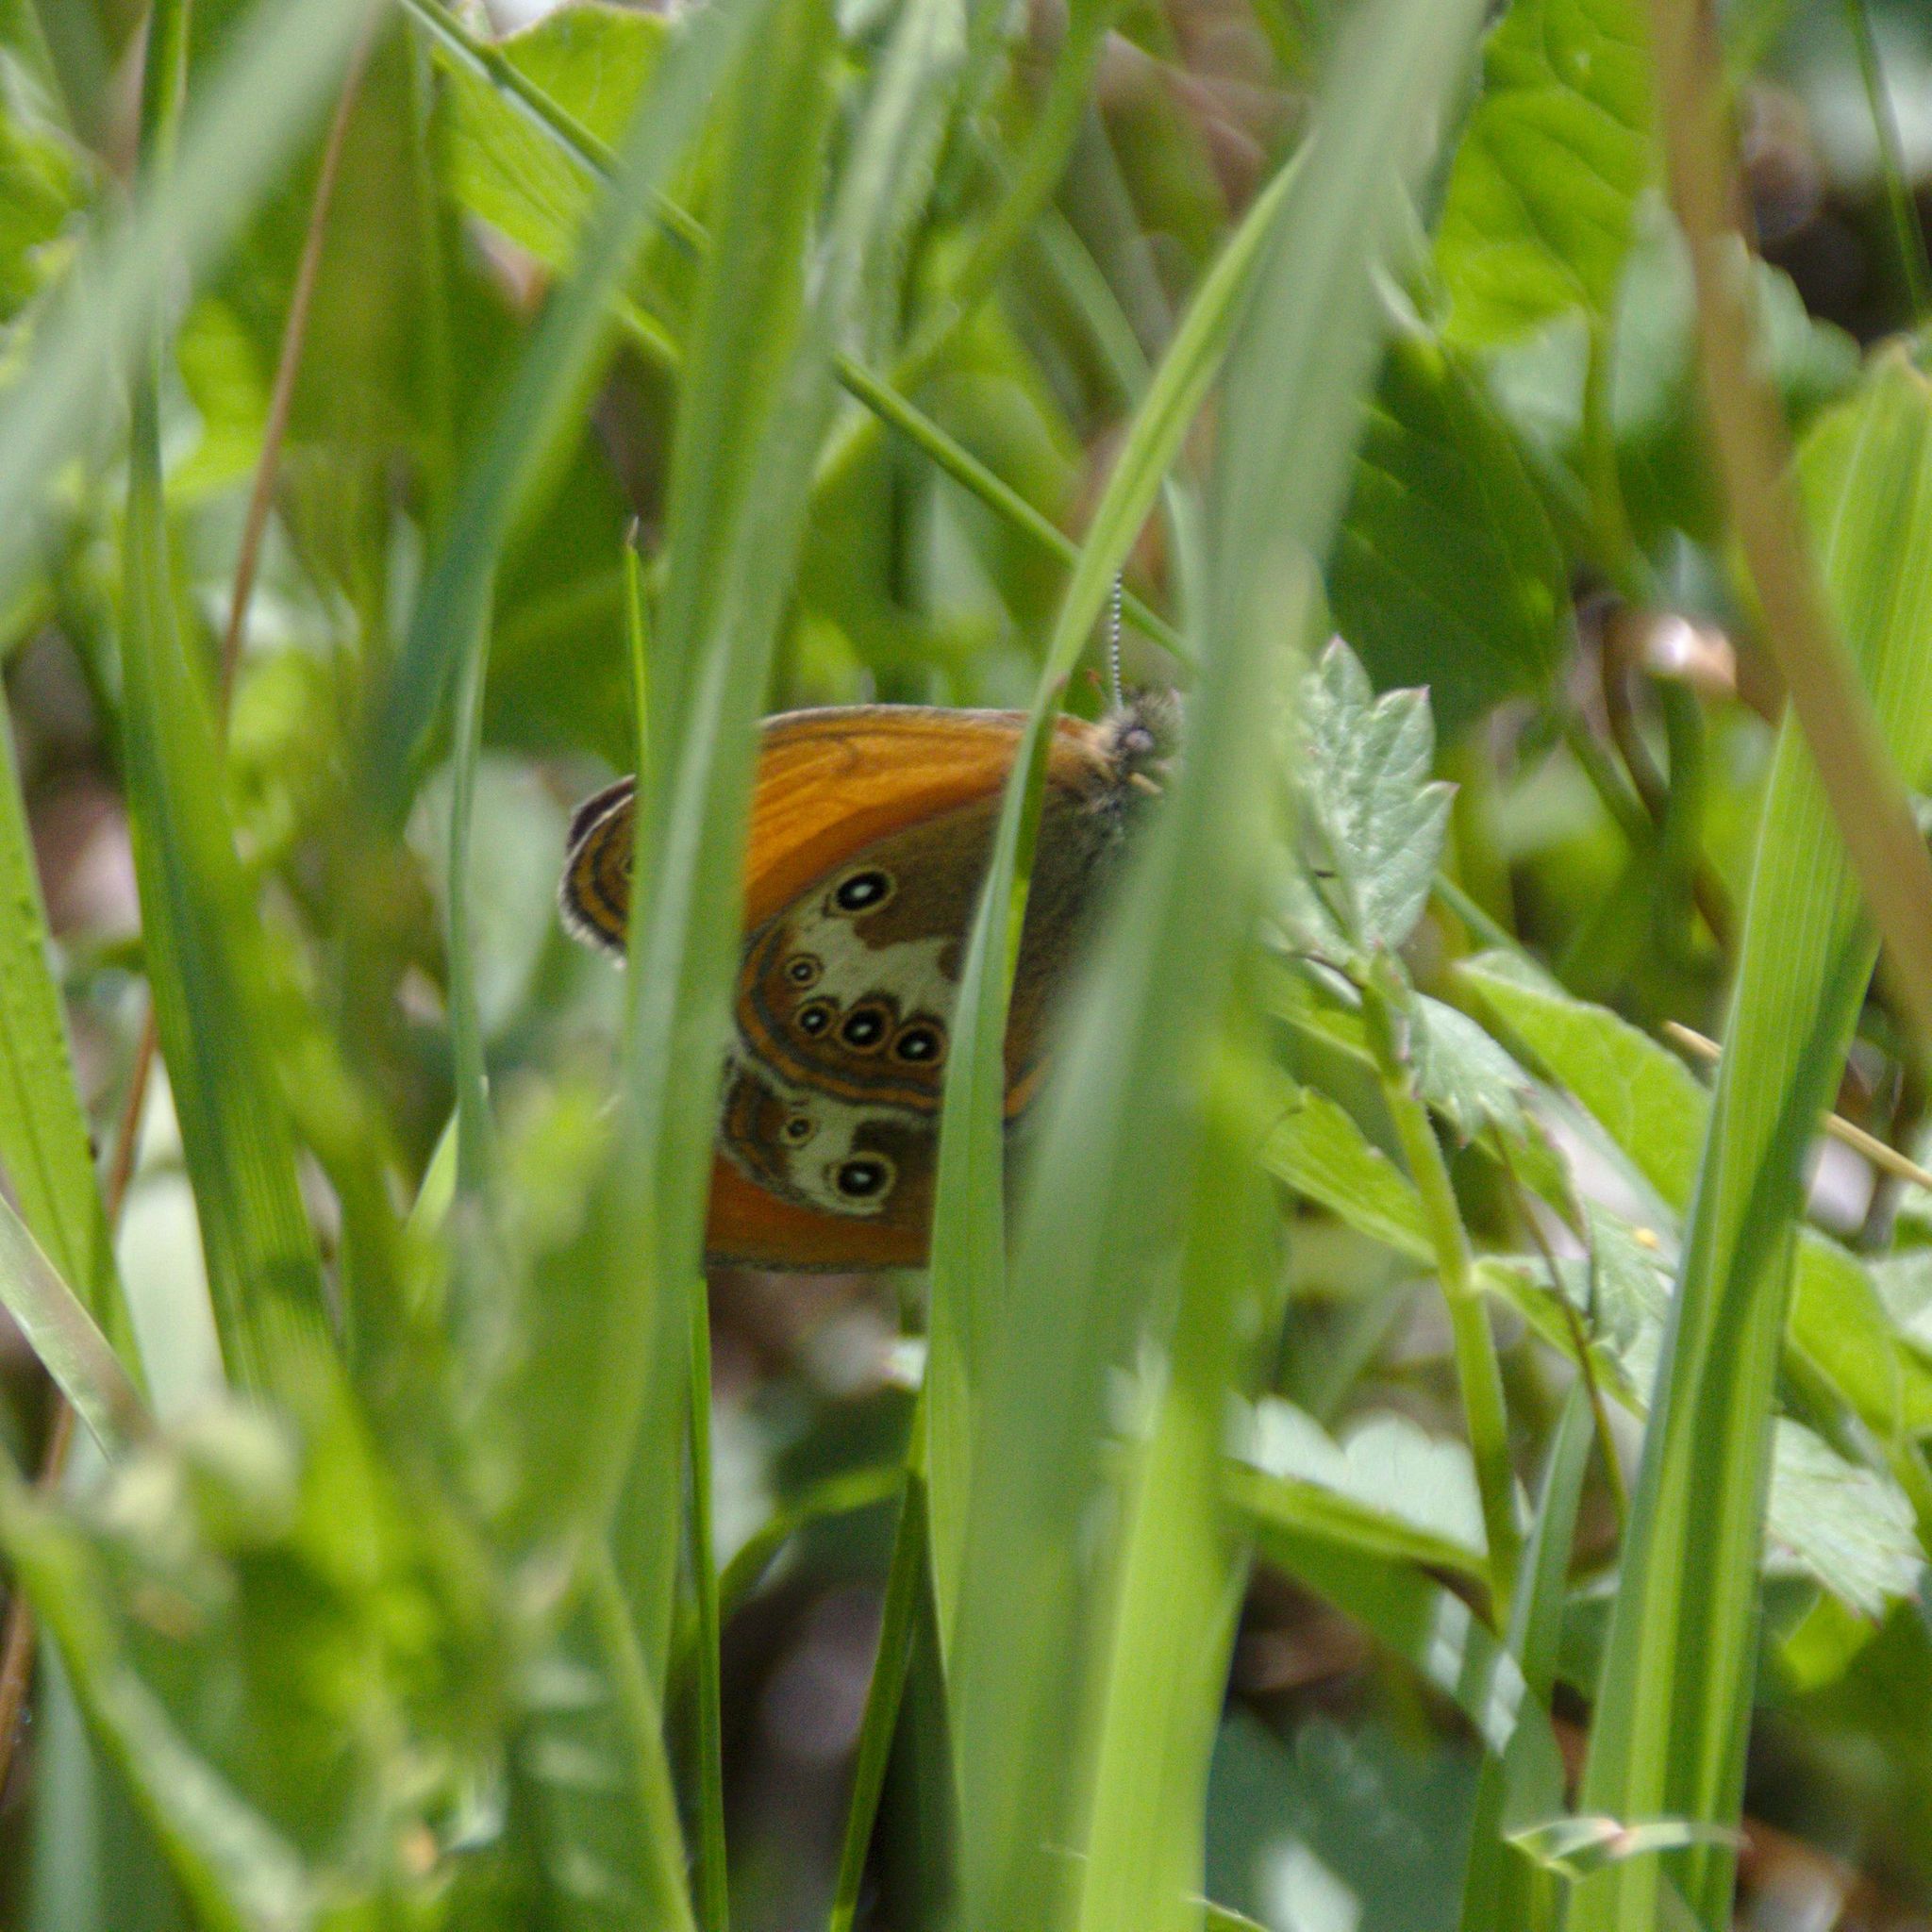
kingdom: Animalia
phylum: Arthropoda
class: Insecta
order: Lepidoptera
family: Nymphalidae
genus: Coenonympha
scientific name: Coenonympha arcania
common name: Pearly heath
